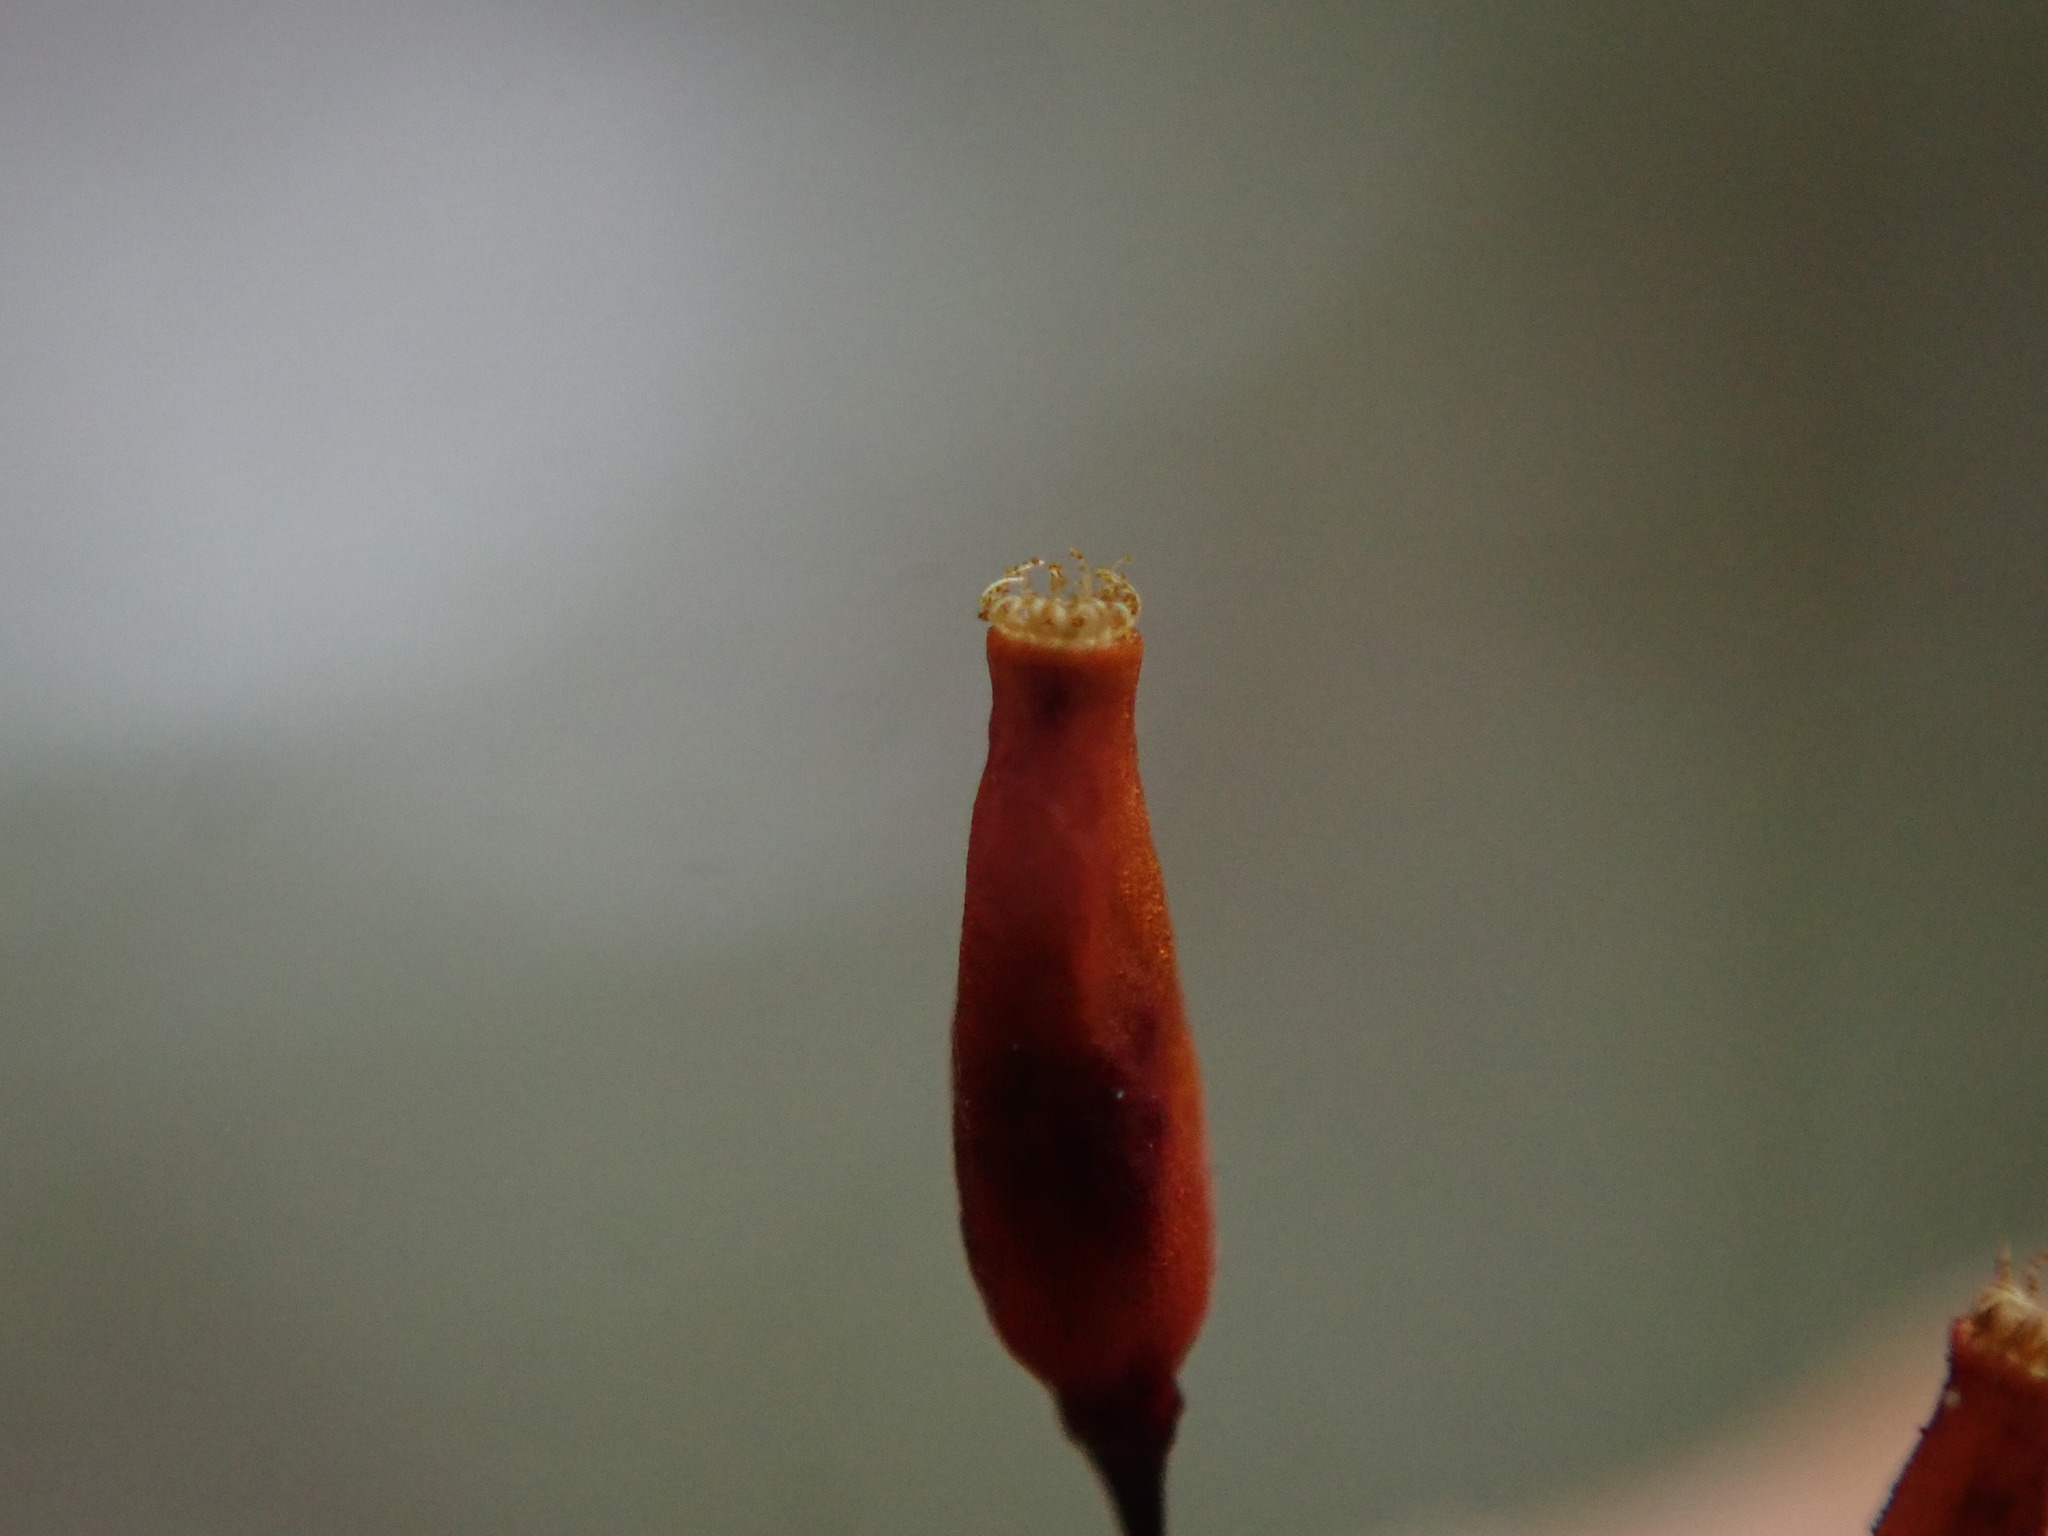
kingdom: Plantae
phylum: Bryophyta
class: Bryopsida
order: Hypnales
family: Antitrichiaceae
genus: Antitrichia
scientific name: Antitrichia curtipendula
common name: Pendulous wing-moss
